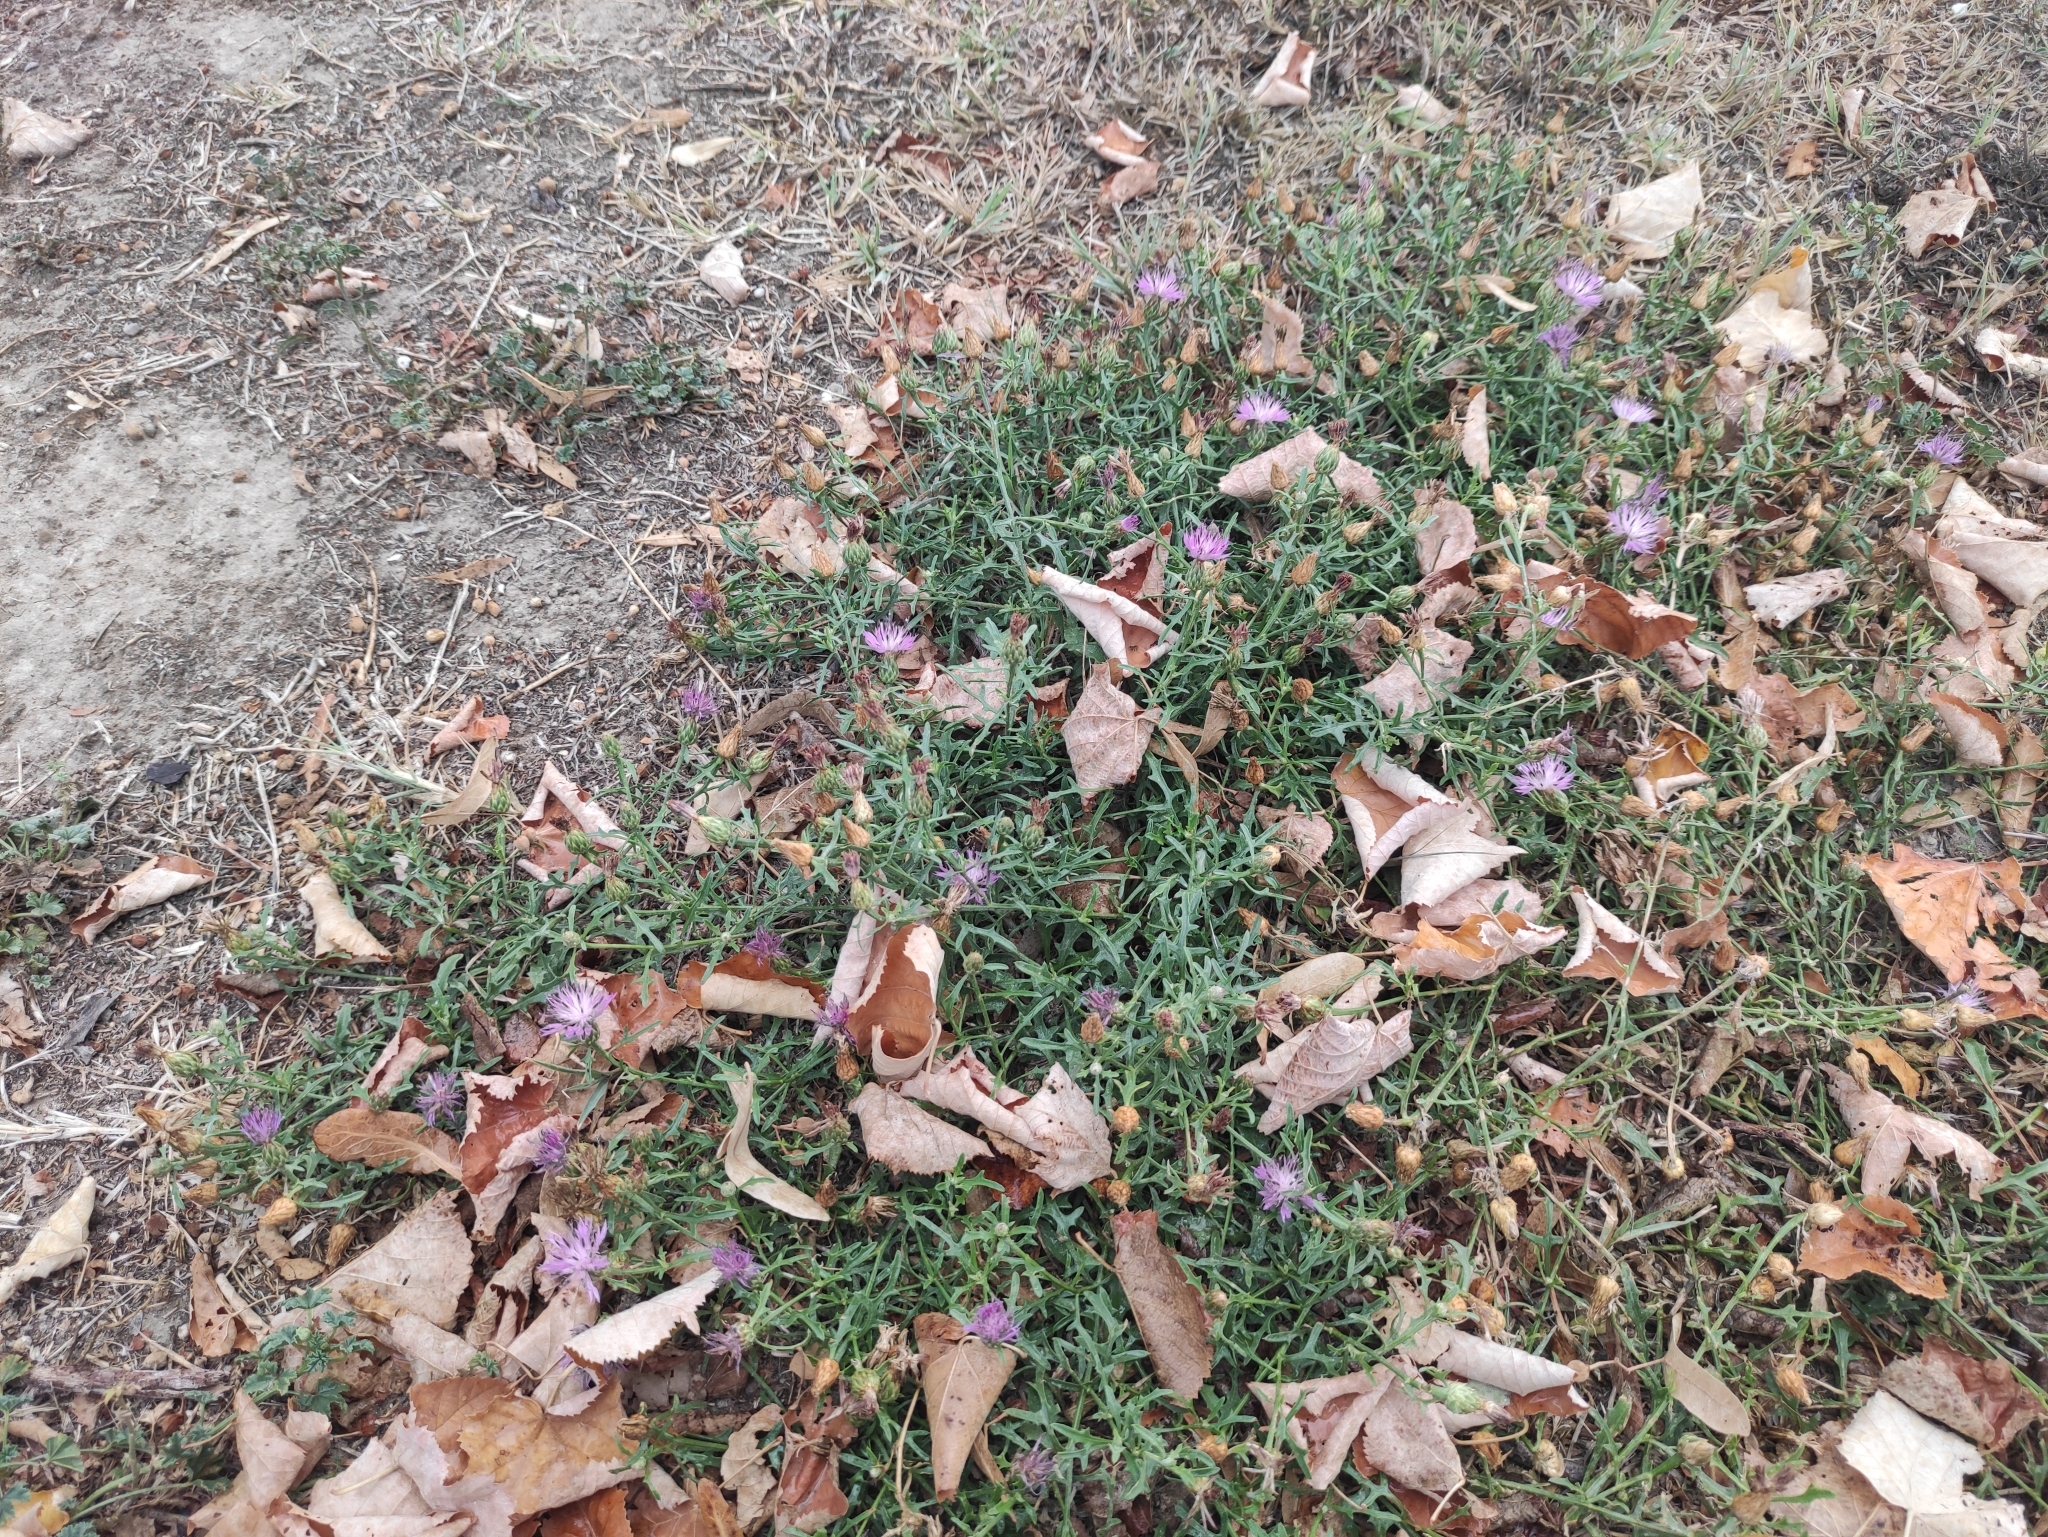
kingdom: Plantae
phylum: Tracheophyta
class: Magnoliopsida
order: Asterales
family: Asteraceae
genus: Centaurea
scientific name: Centaurea aspera
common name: Rough star-thistle
